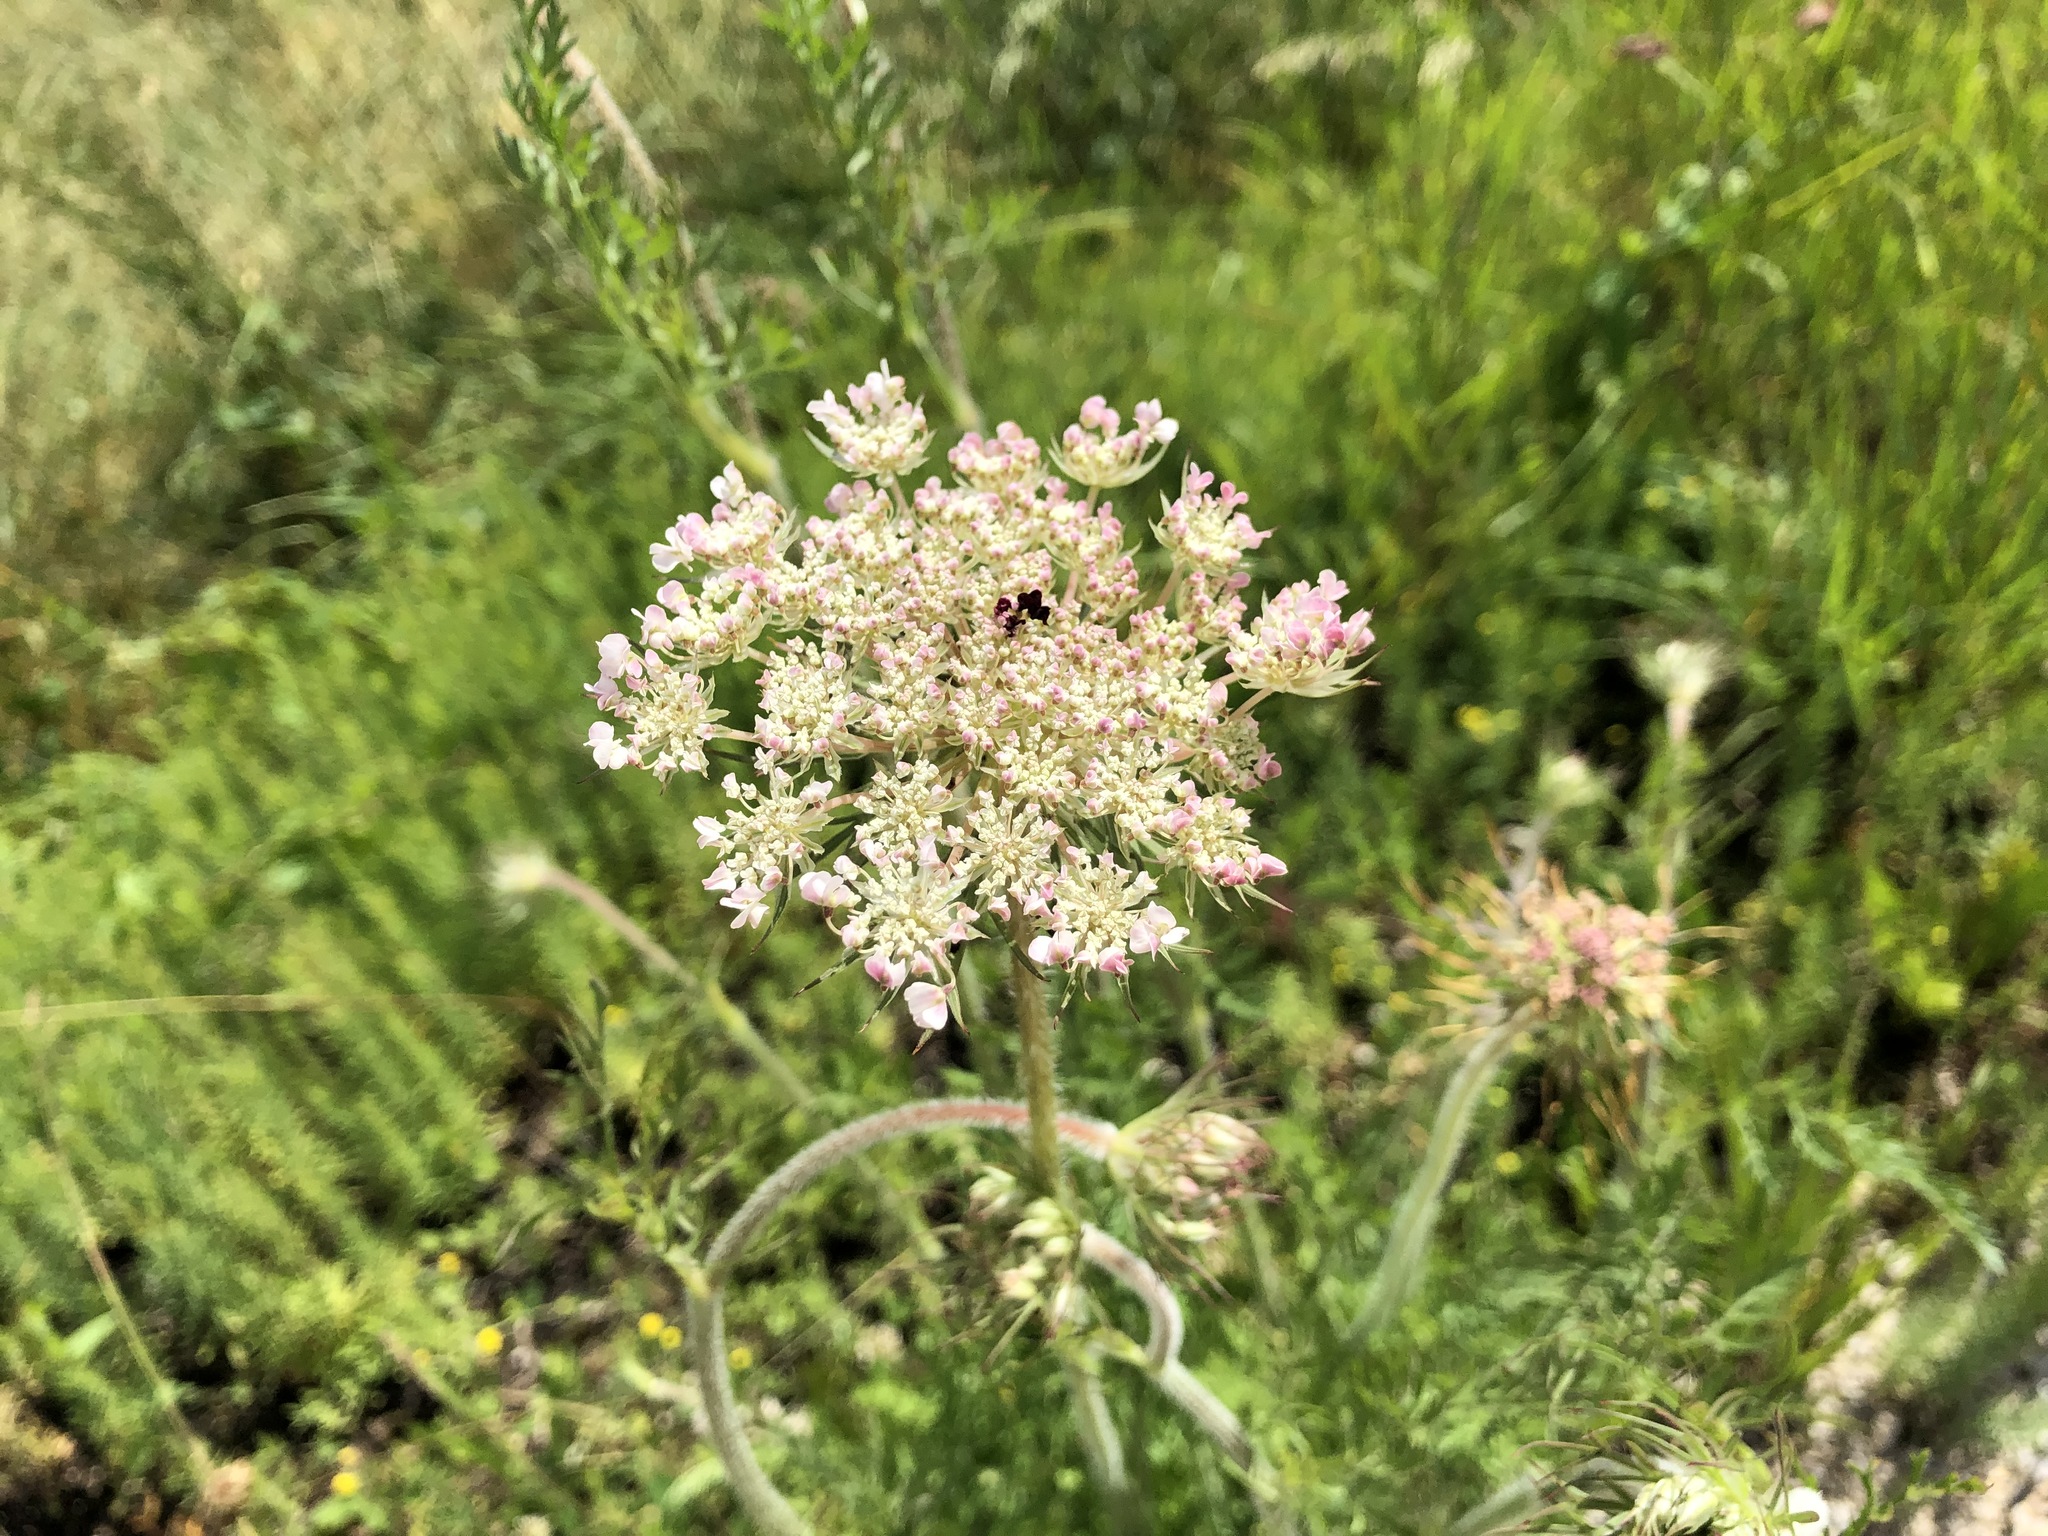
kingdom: Plantae
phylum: Tracheophyta
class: Magnoliopsida
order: Apiales
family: Apiaceae
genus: Daucus
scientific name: Daucus carota
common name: Wild carrot
